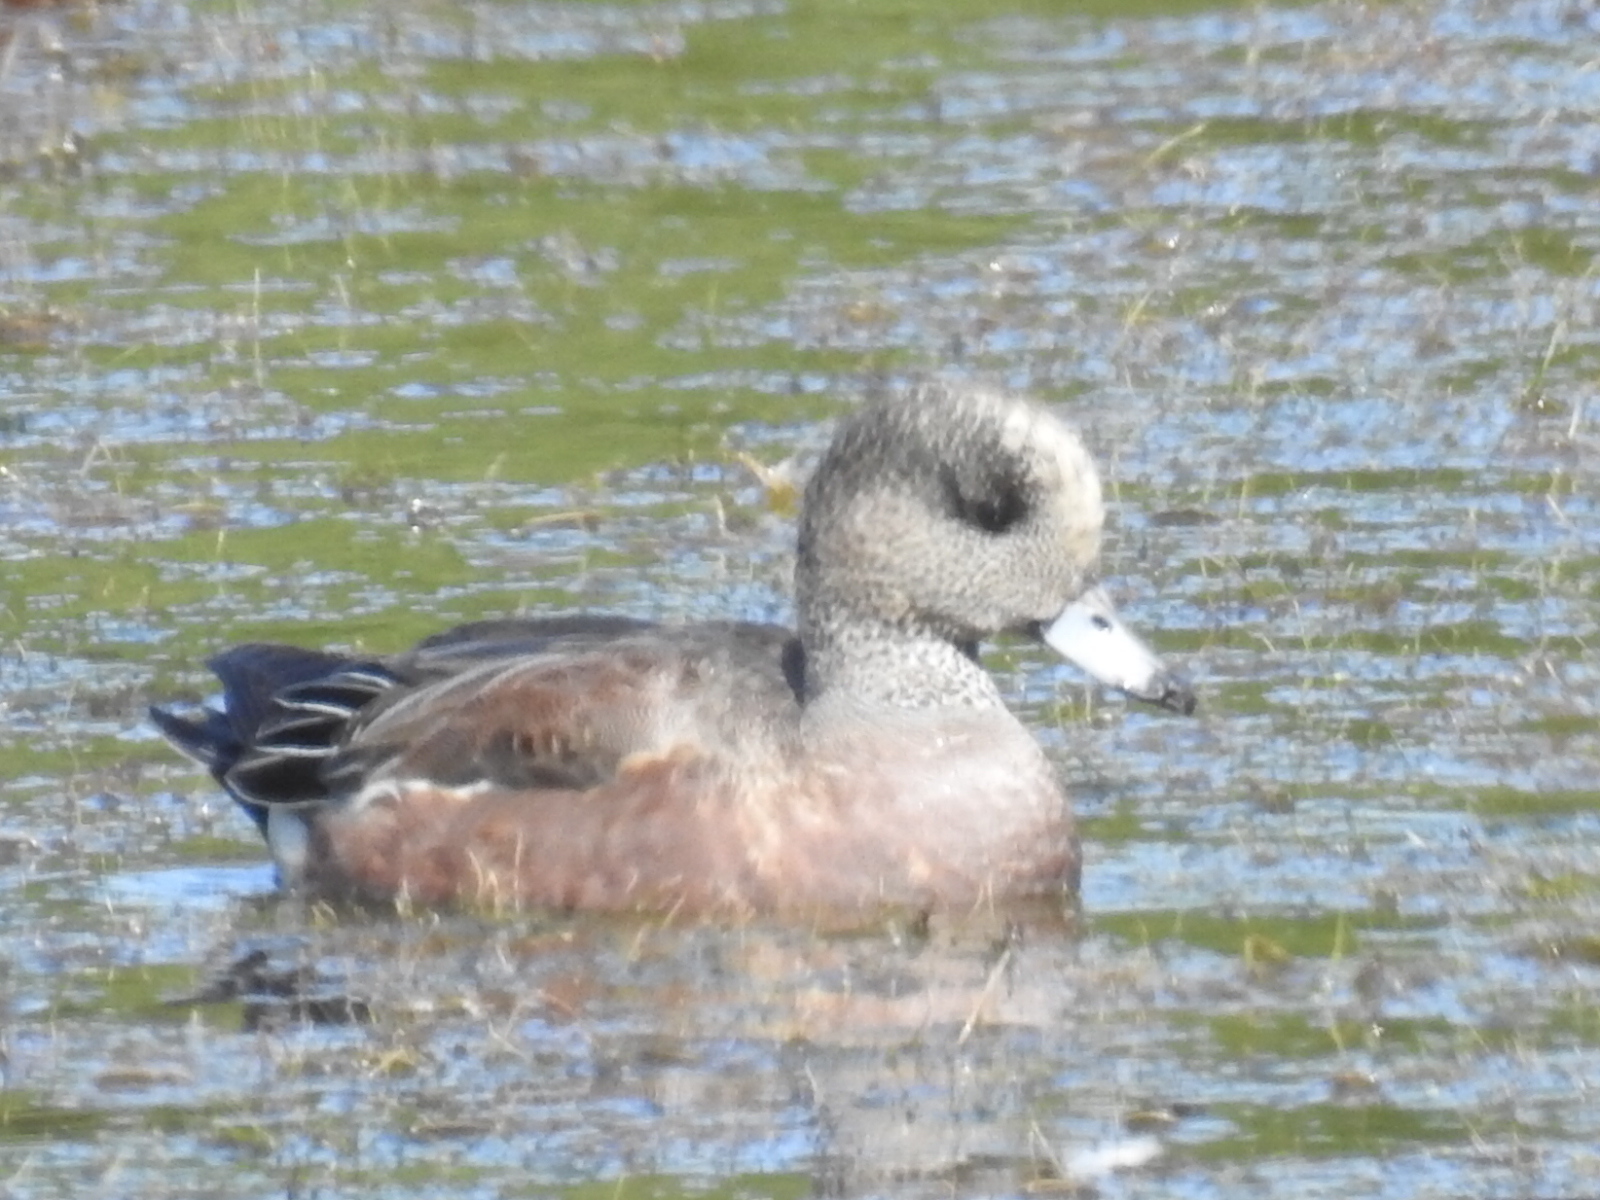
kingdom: Animalia
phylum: Chordata
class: Aves
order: Anseriformes
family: Anatidae
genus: Mareca
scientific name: Mareca americana
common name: American wigeon
